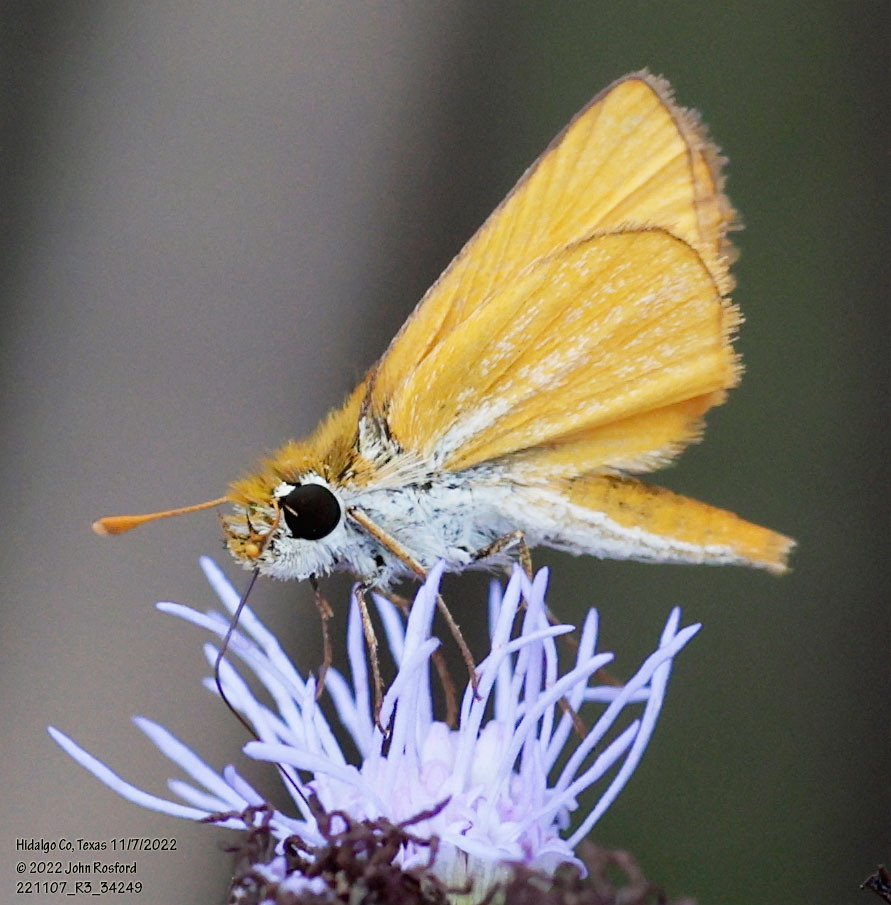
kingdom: Animalia
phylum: Arthropoda
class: Insecta
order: Lepidoptera
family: Hesperiidae
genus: Copaeodes
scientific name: Copaeodes minima
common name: Southern skipperling
